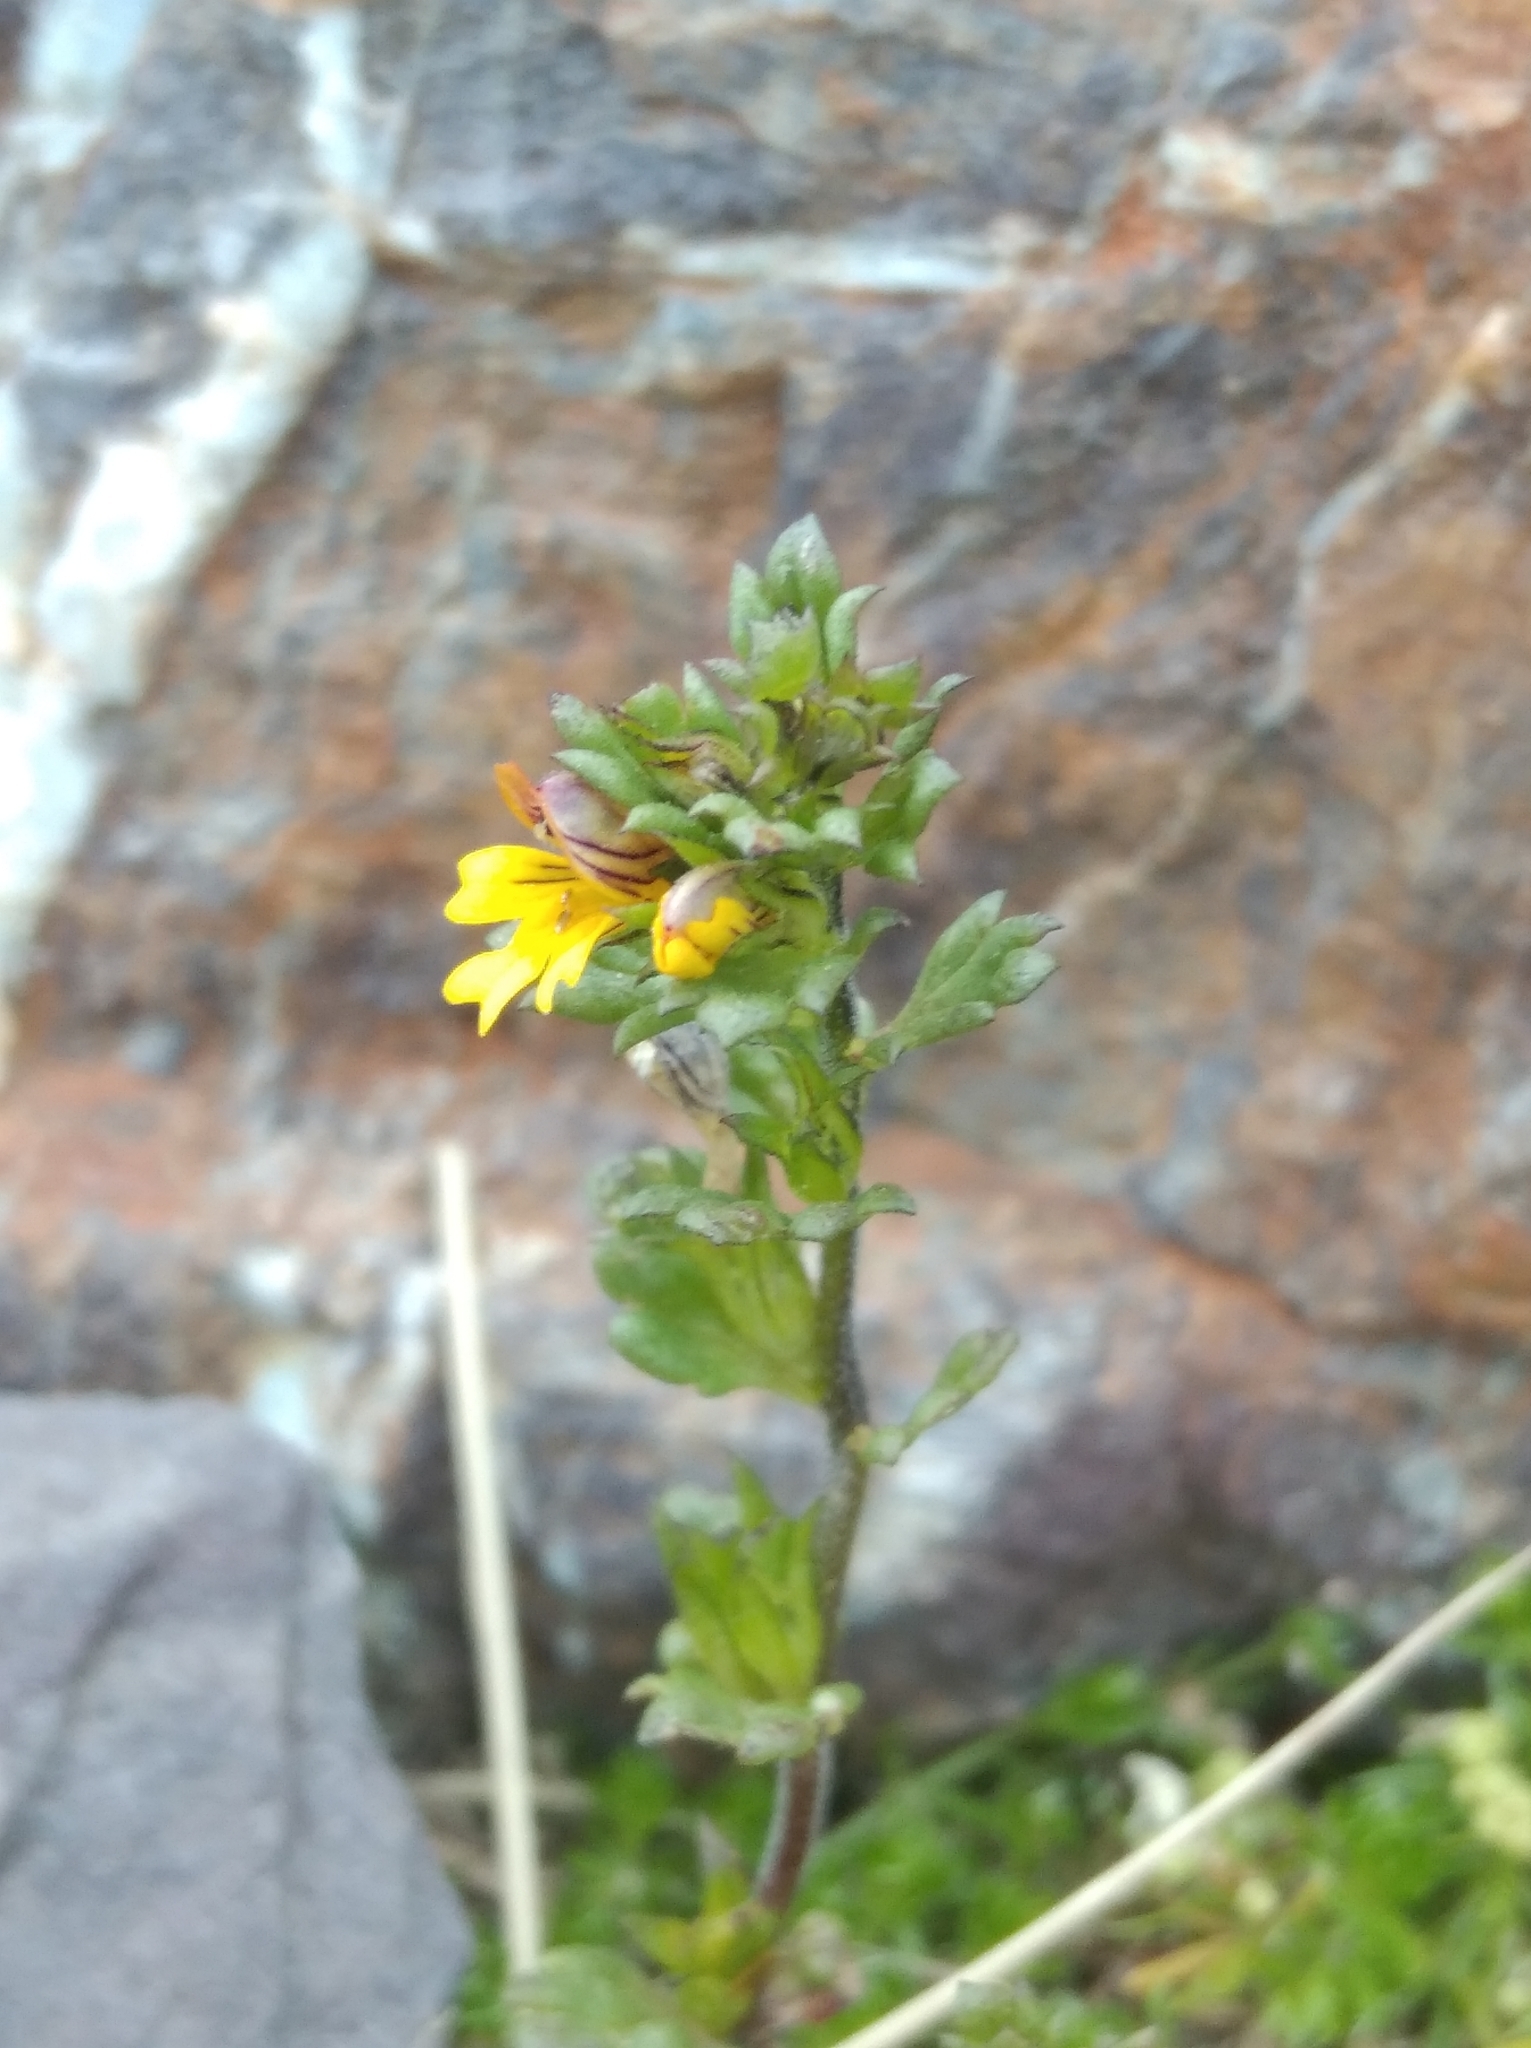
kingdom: Plantae
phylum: Tracheophyta
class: Magnoliopsida
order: Lamiales
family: Orobanchaceae
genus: Euphrasia
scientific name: Euphrasia minima
